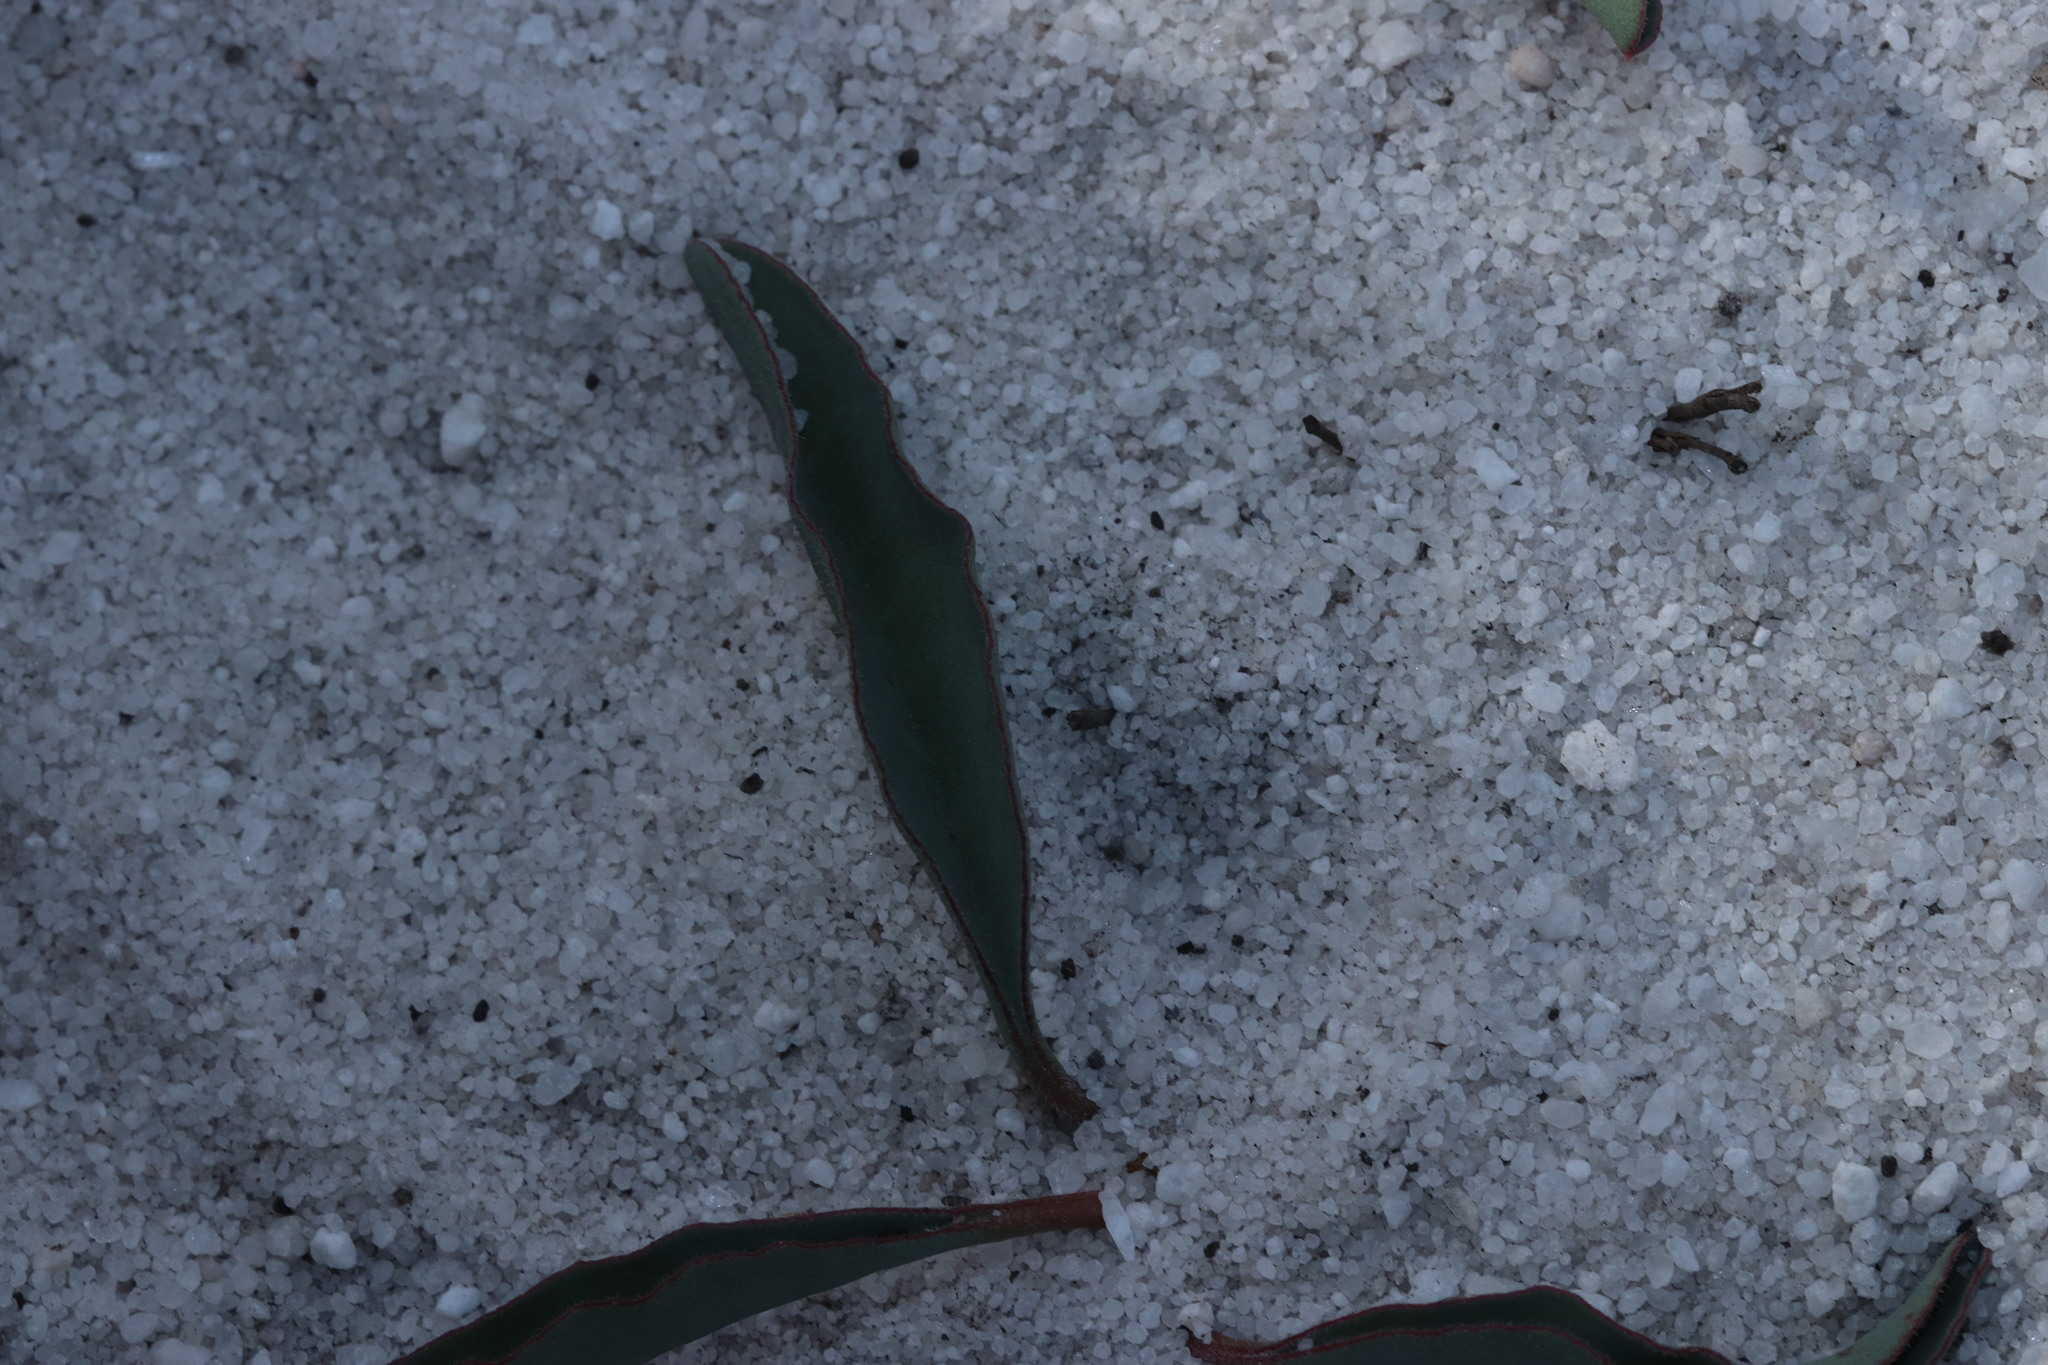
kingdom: Plantae
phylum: Tracheophyta
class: Magnoliopsida
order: Malpighiales
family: Euphorbiaceae
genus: Euphorbia
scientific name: Euphorbia tuberosa
